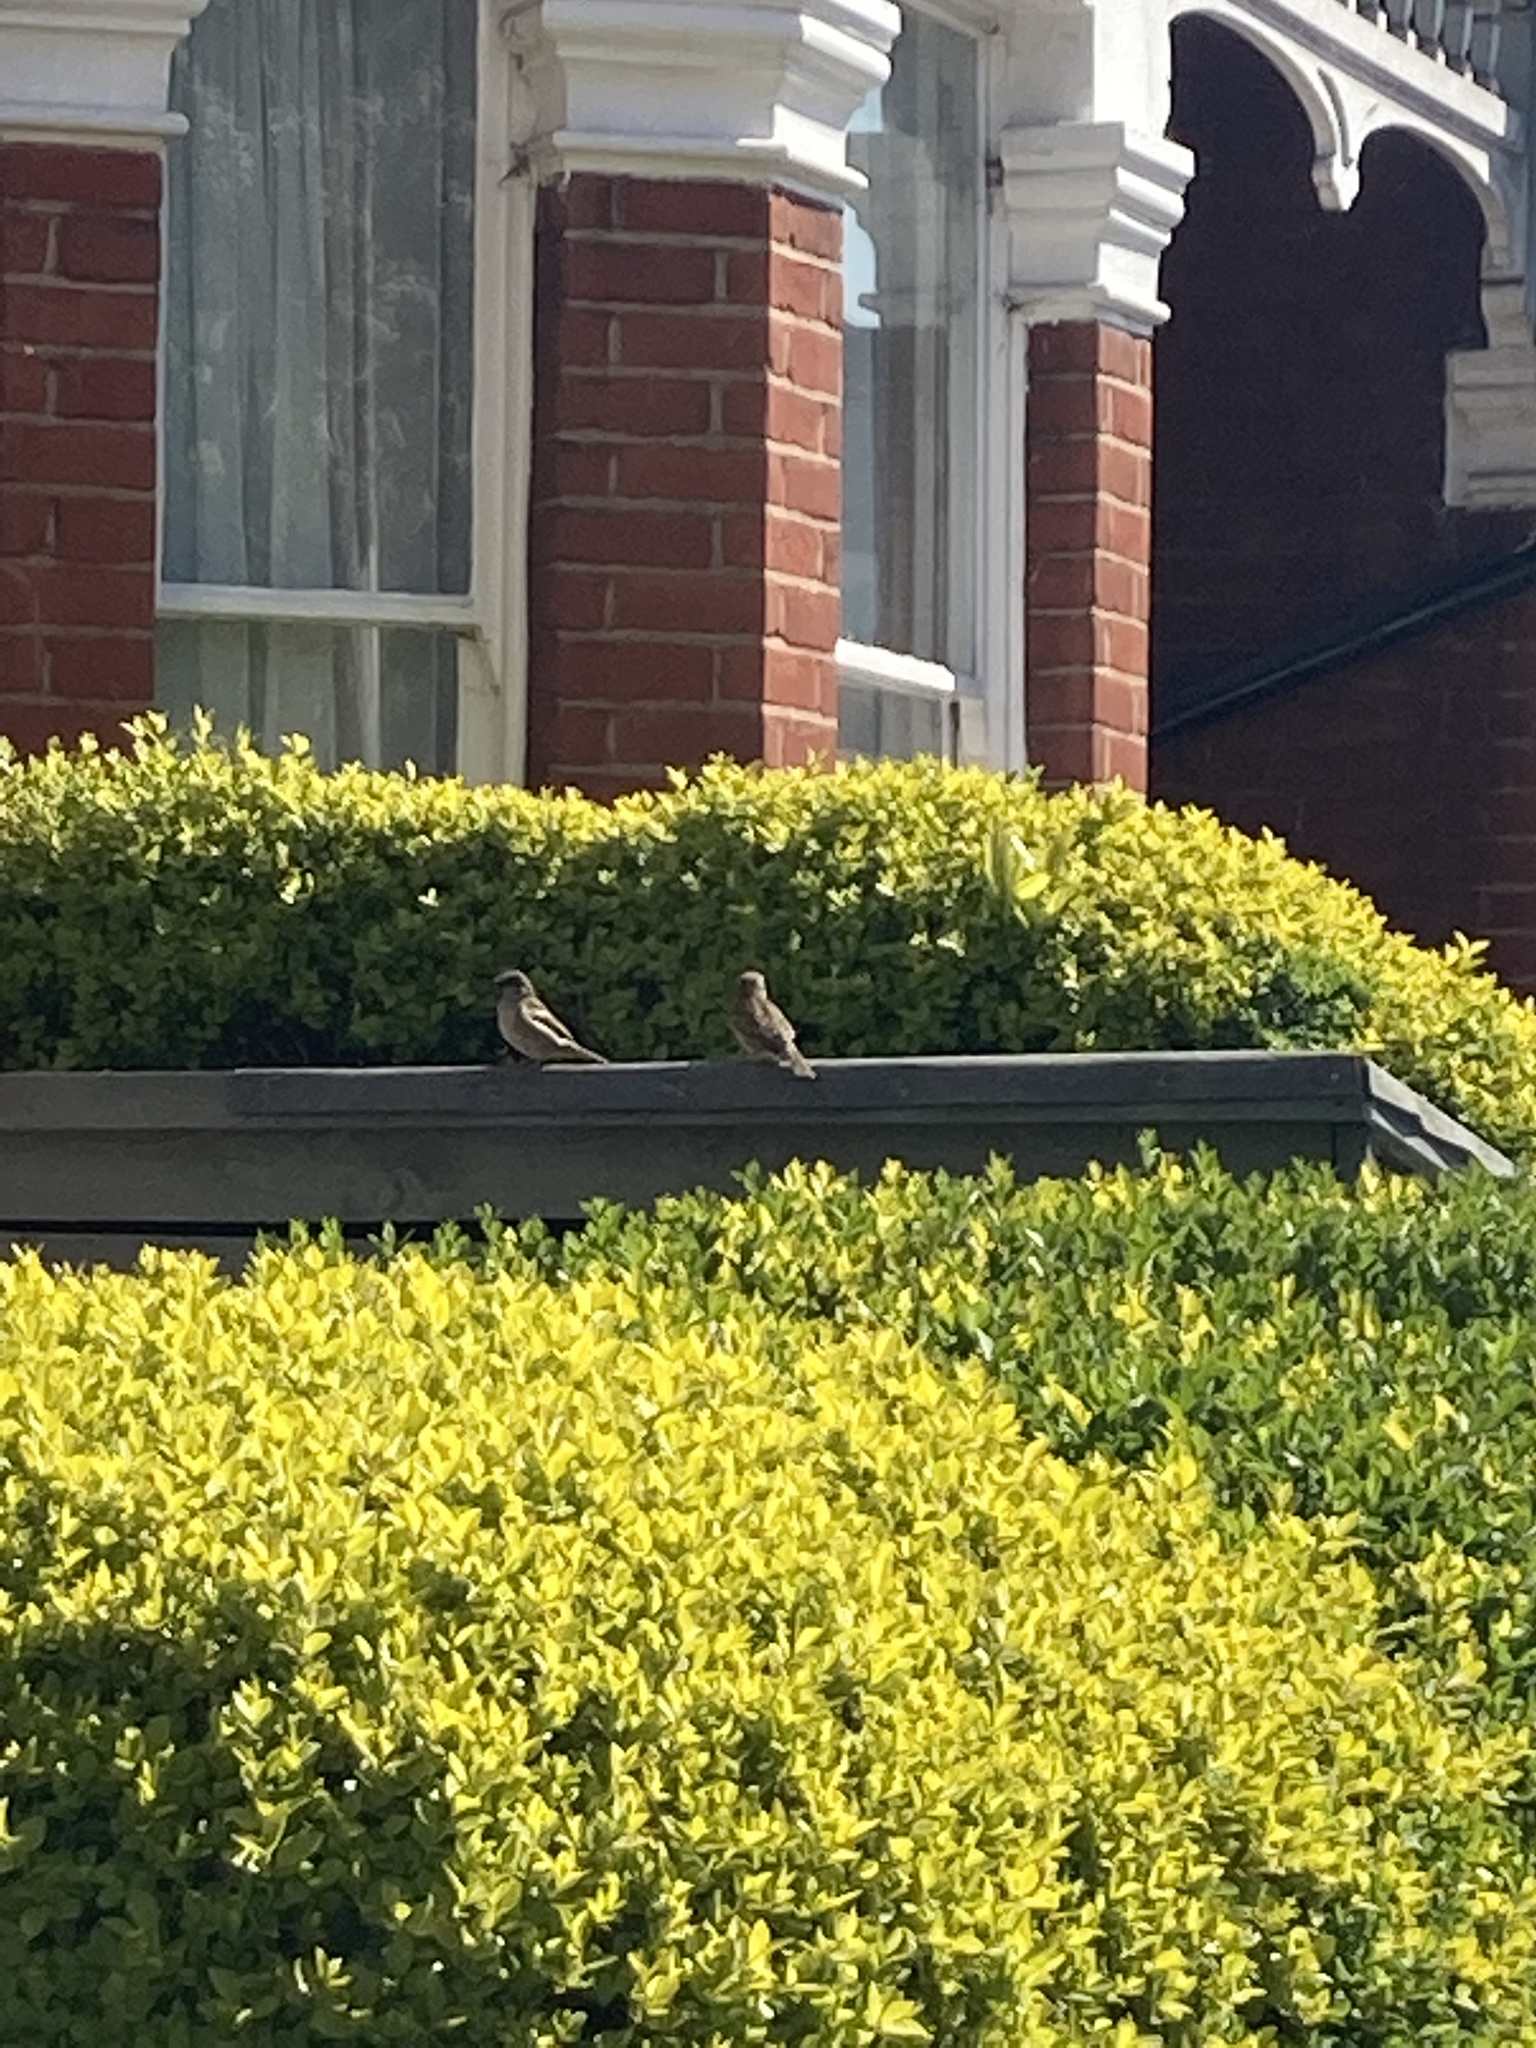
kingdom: Animalia
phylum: Chordata
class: Aves
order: Passeriformes
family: Passeridae
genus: Passer
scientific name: Passer domesticus
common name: House sparrow
